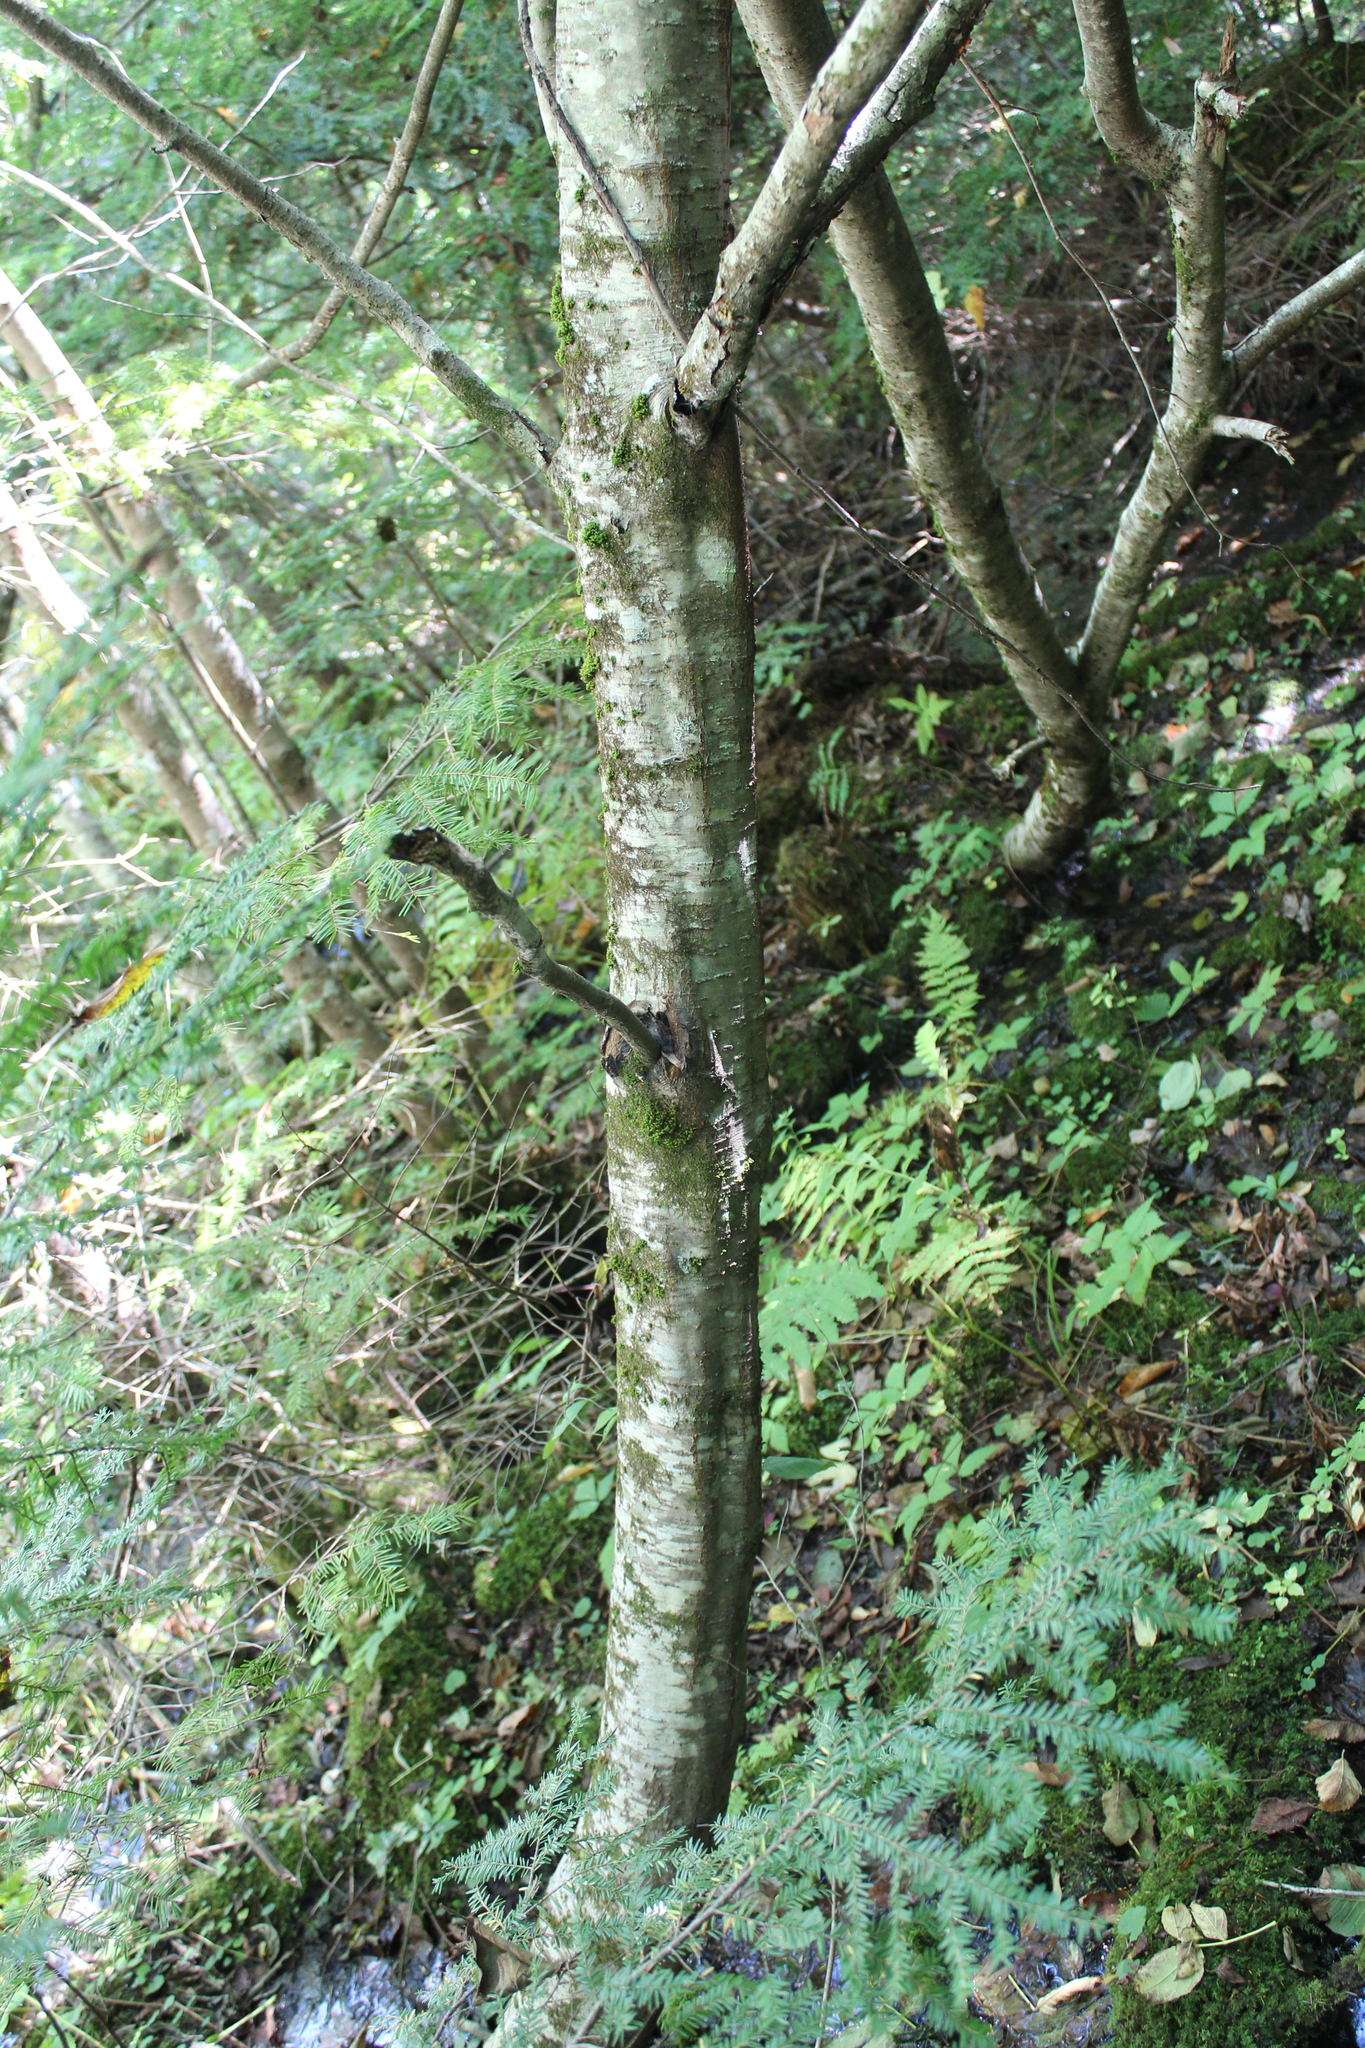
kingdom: Plantae
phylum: Tracheophyta
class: Magnoliopsida
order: Fagales
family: Betulaceae
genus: Betula
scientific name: Betula lenta
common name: Black birch
